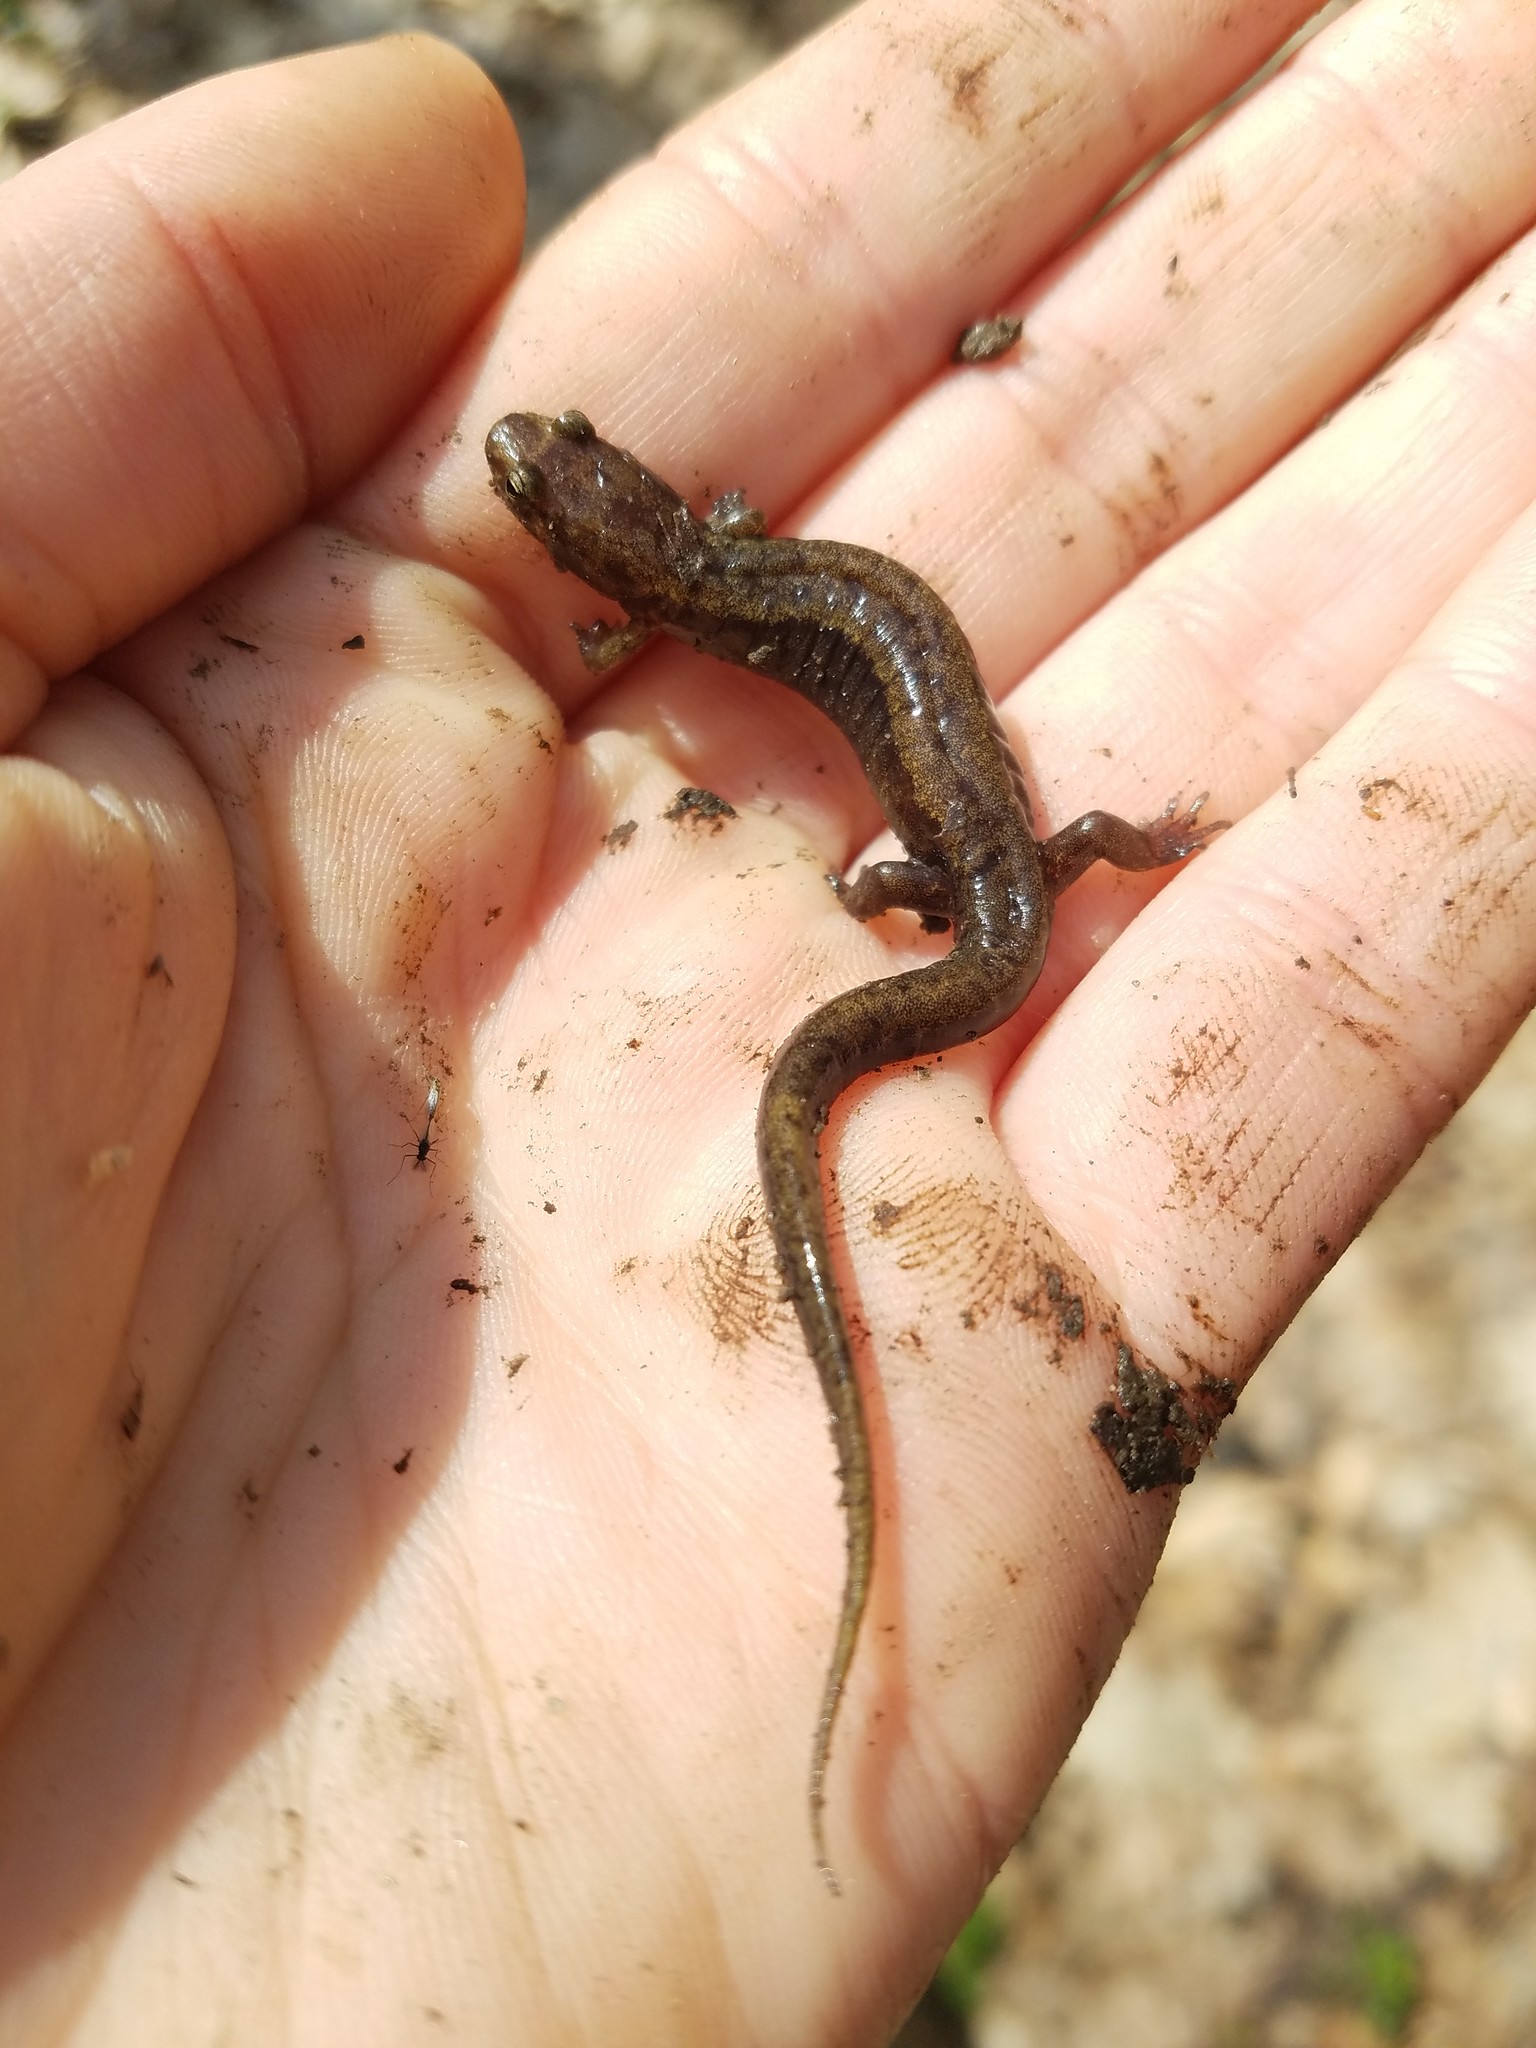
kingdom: Animalia
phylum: Chordata
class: Amphibia
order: Caudata
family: Plethodontidae
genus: Desmognathus
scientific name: Desmognathus ochrophaeus
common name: Allegheny mountain dusky salamander
